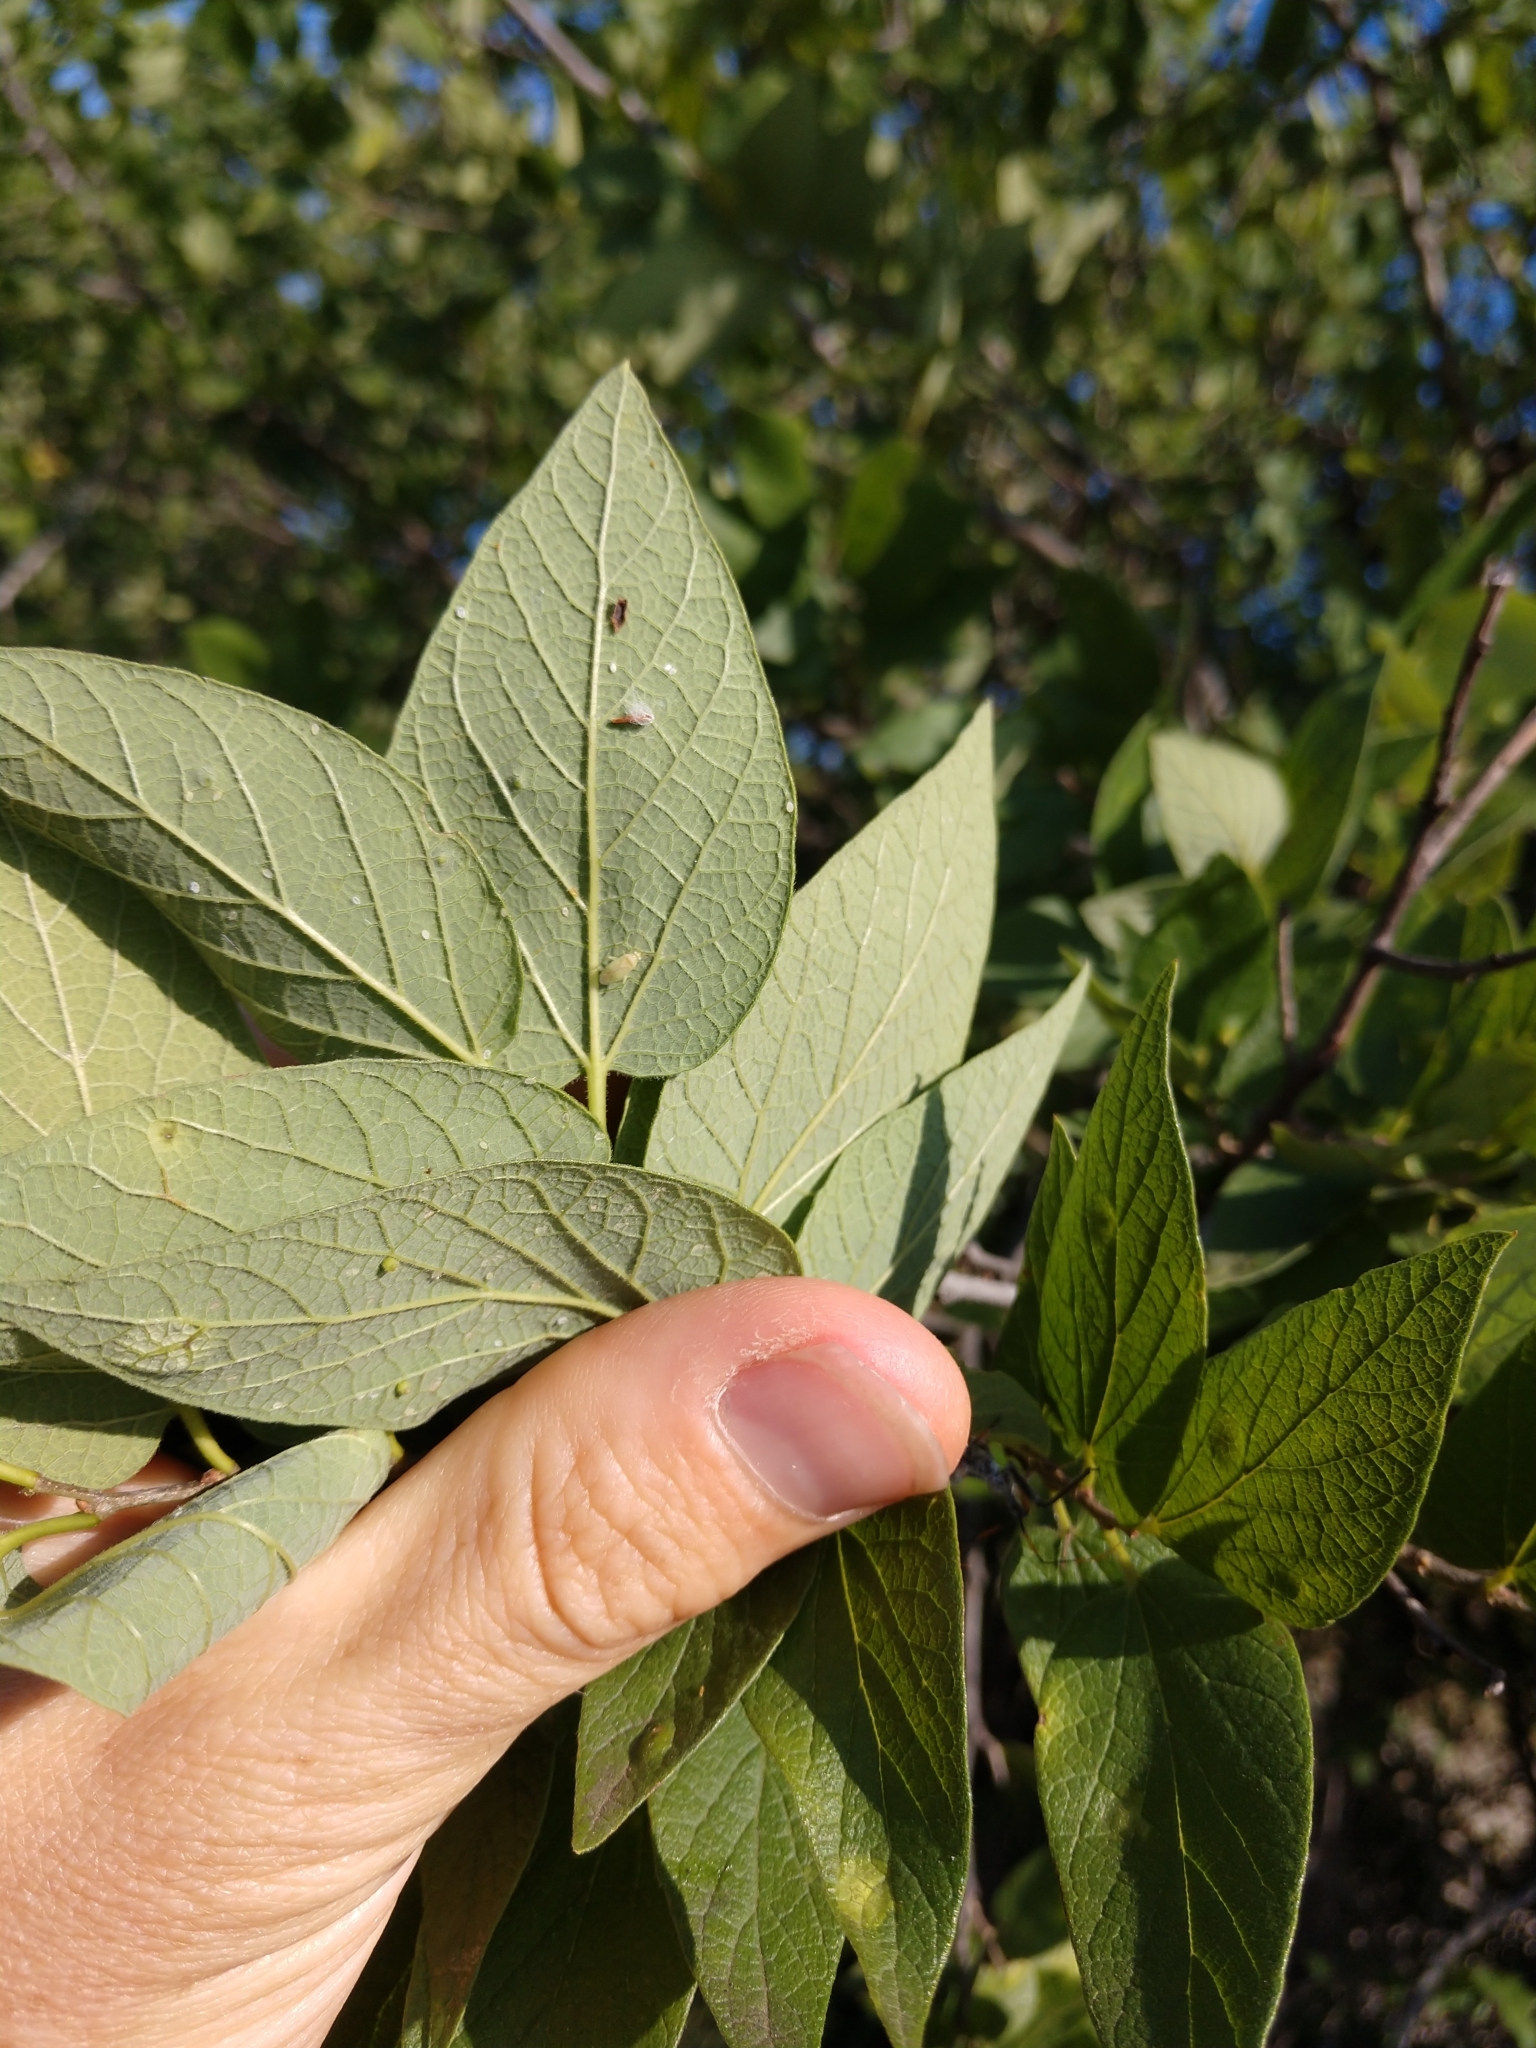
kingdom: Plantae
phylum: Tracheophyta
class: Magnoliopsida
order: Rosales
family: Cannabaceae
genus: Celtis
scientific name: Celtis reticulata
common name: Netleaf hackberry
